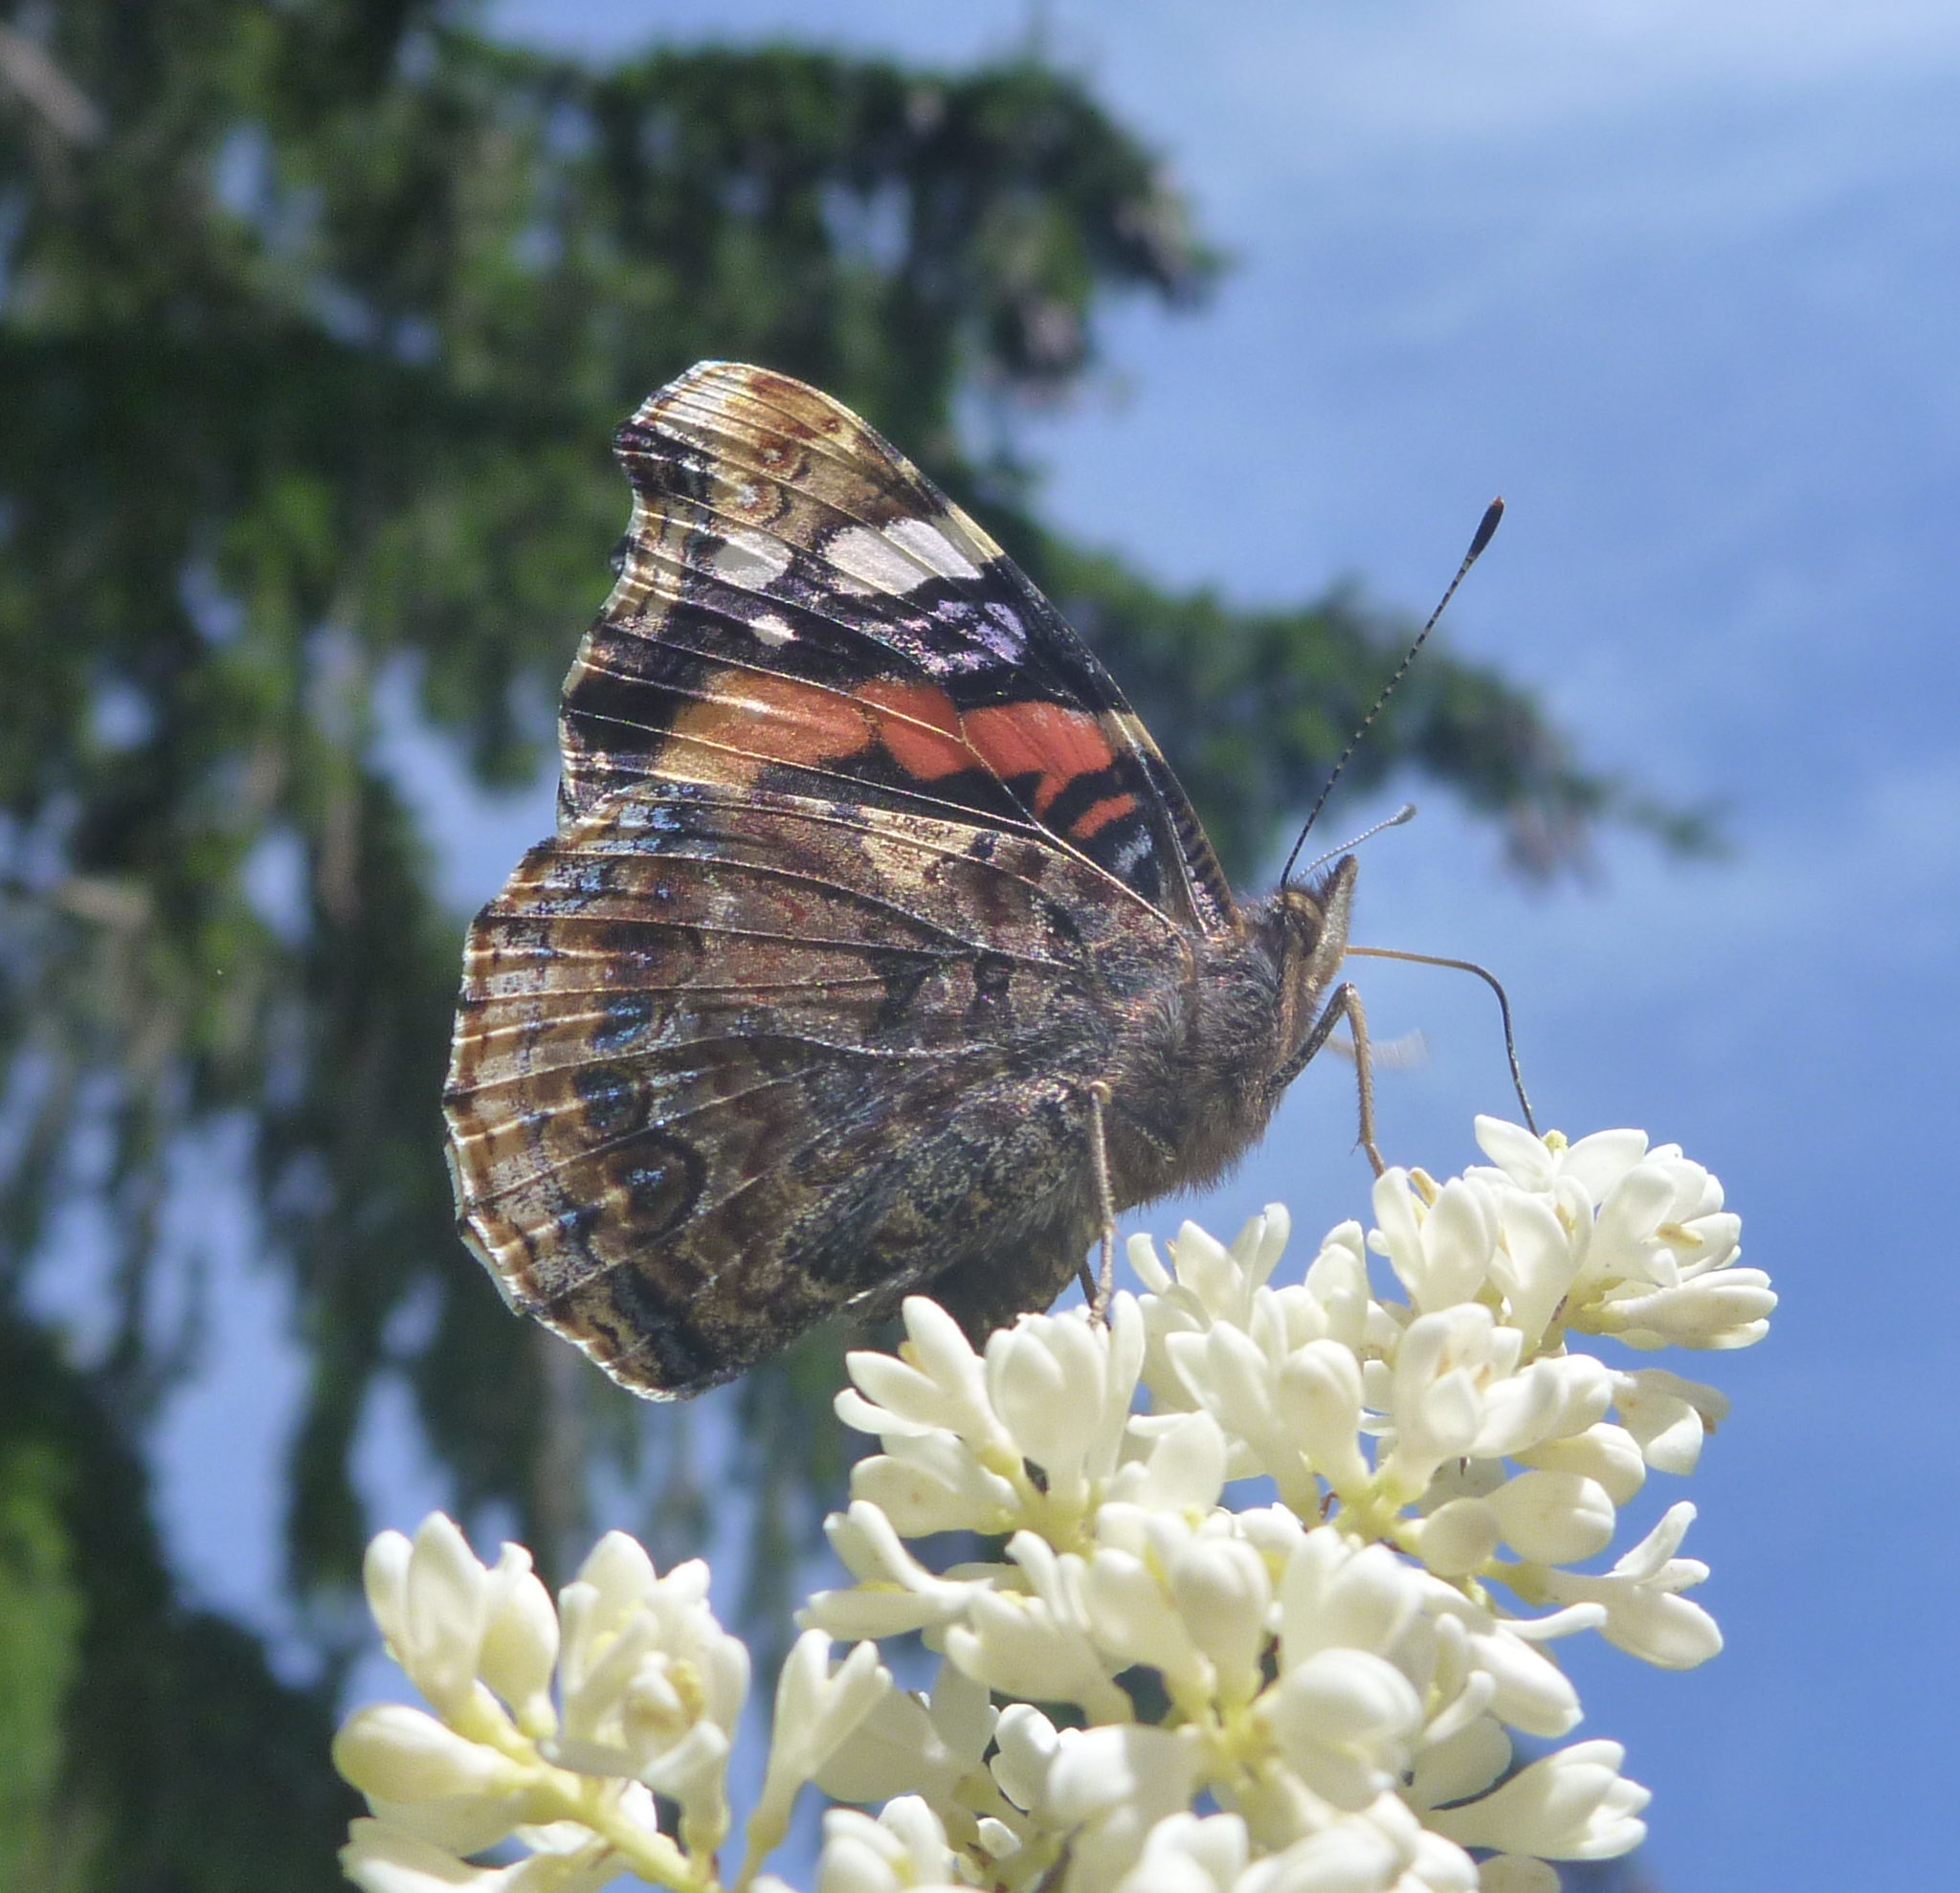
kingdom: Animalia
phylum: Arthropoda
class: Insecta
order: Lepidoptera
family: Nymphalidae
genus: Vanessa
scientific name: Vanessa atalanta
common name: Red admiral
